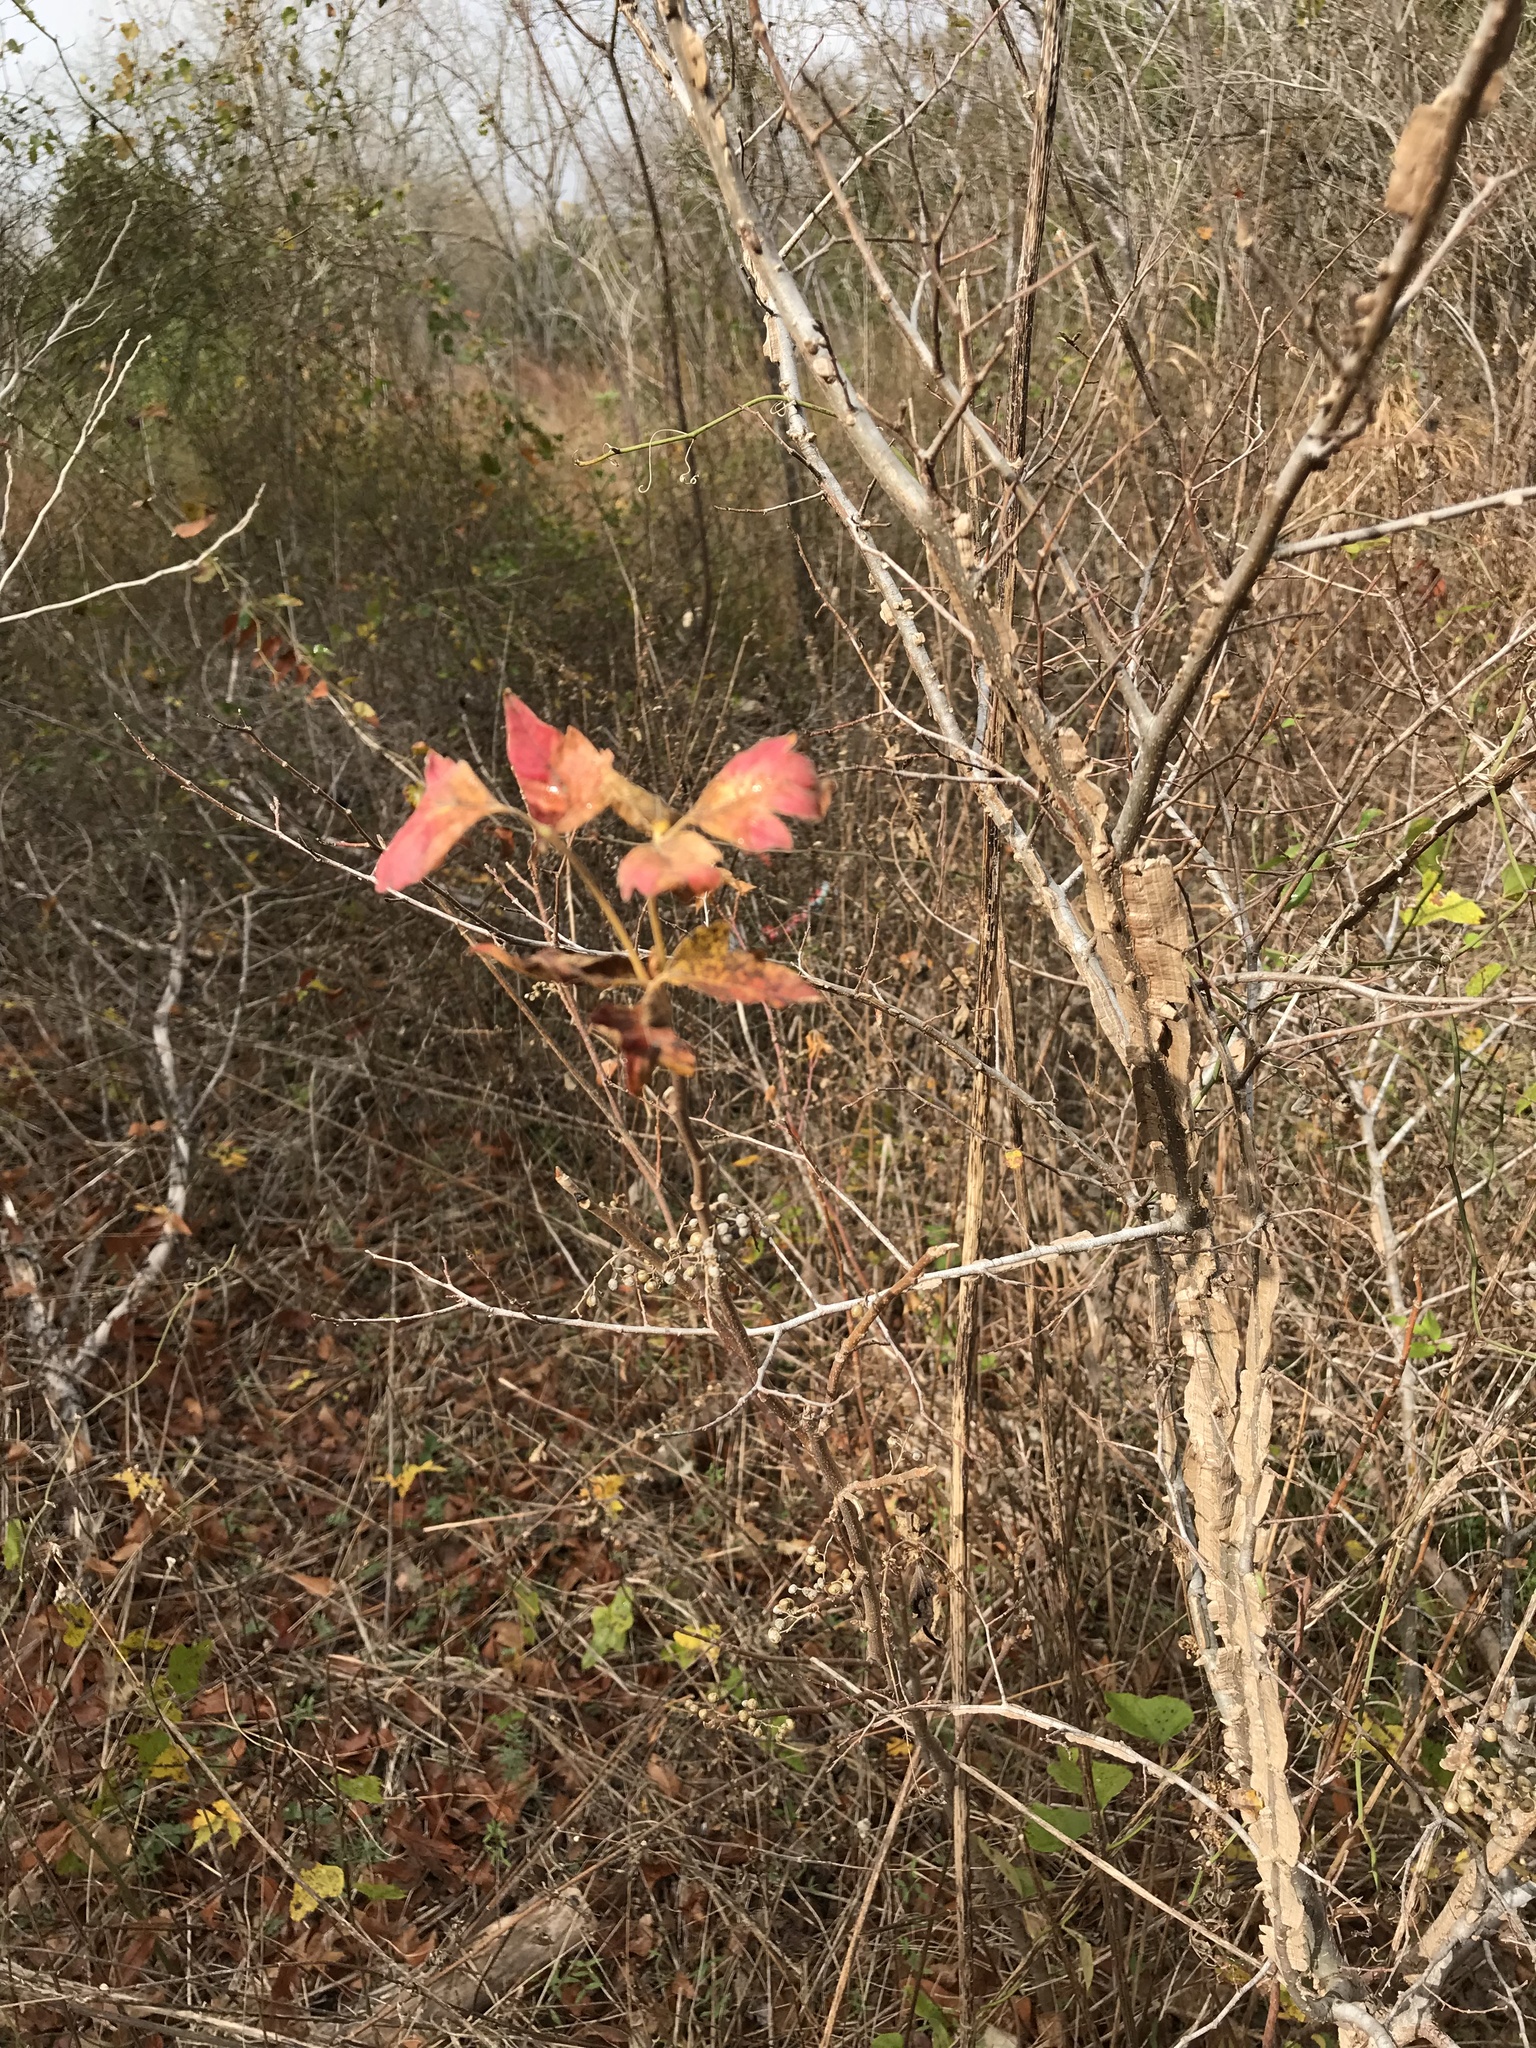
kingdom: Plantae
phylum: Tracheophyta
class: Magnoliopsida
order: Sapindales
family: Anacardiaceae
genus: Toxicodendron
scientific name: Toxicodendron radicans
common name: Poison ivy
